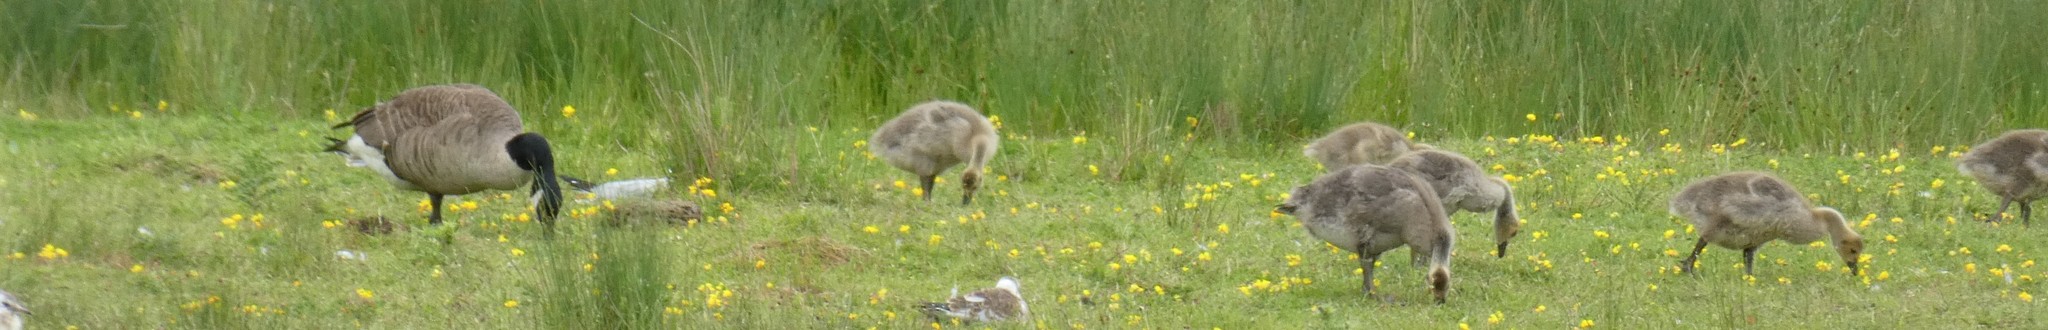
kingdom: Animalia
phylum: Chordata
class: Aves
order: Anseriformes
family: Anatidae
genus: Branta
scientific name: Branta canadensis
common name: Canada goose
